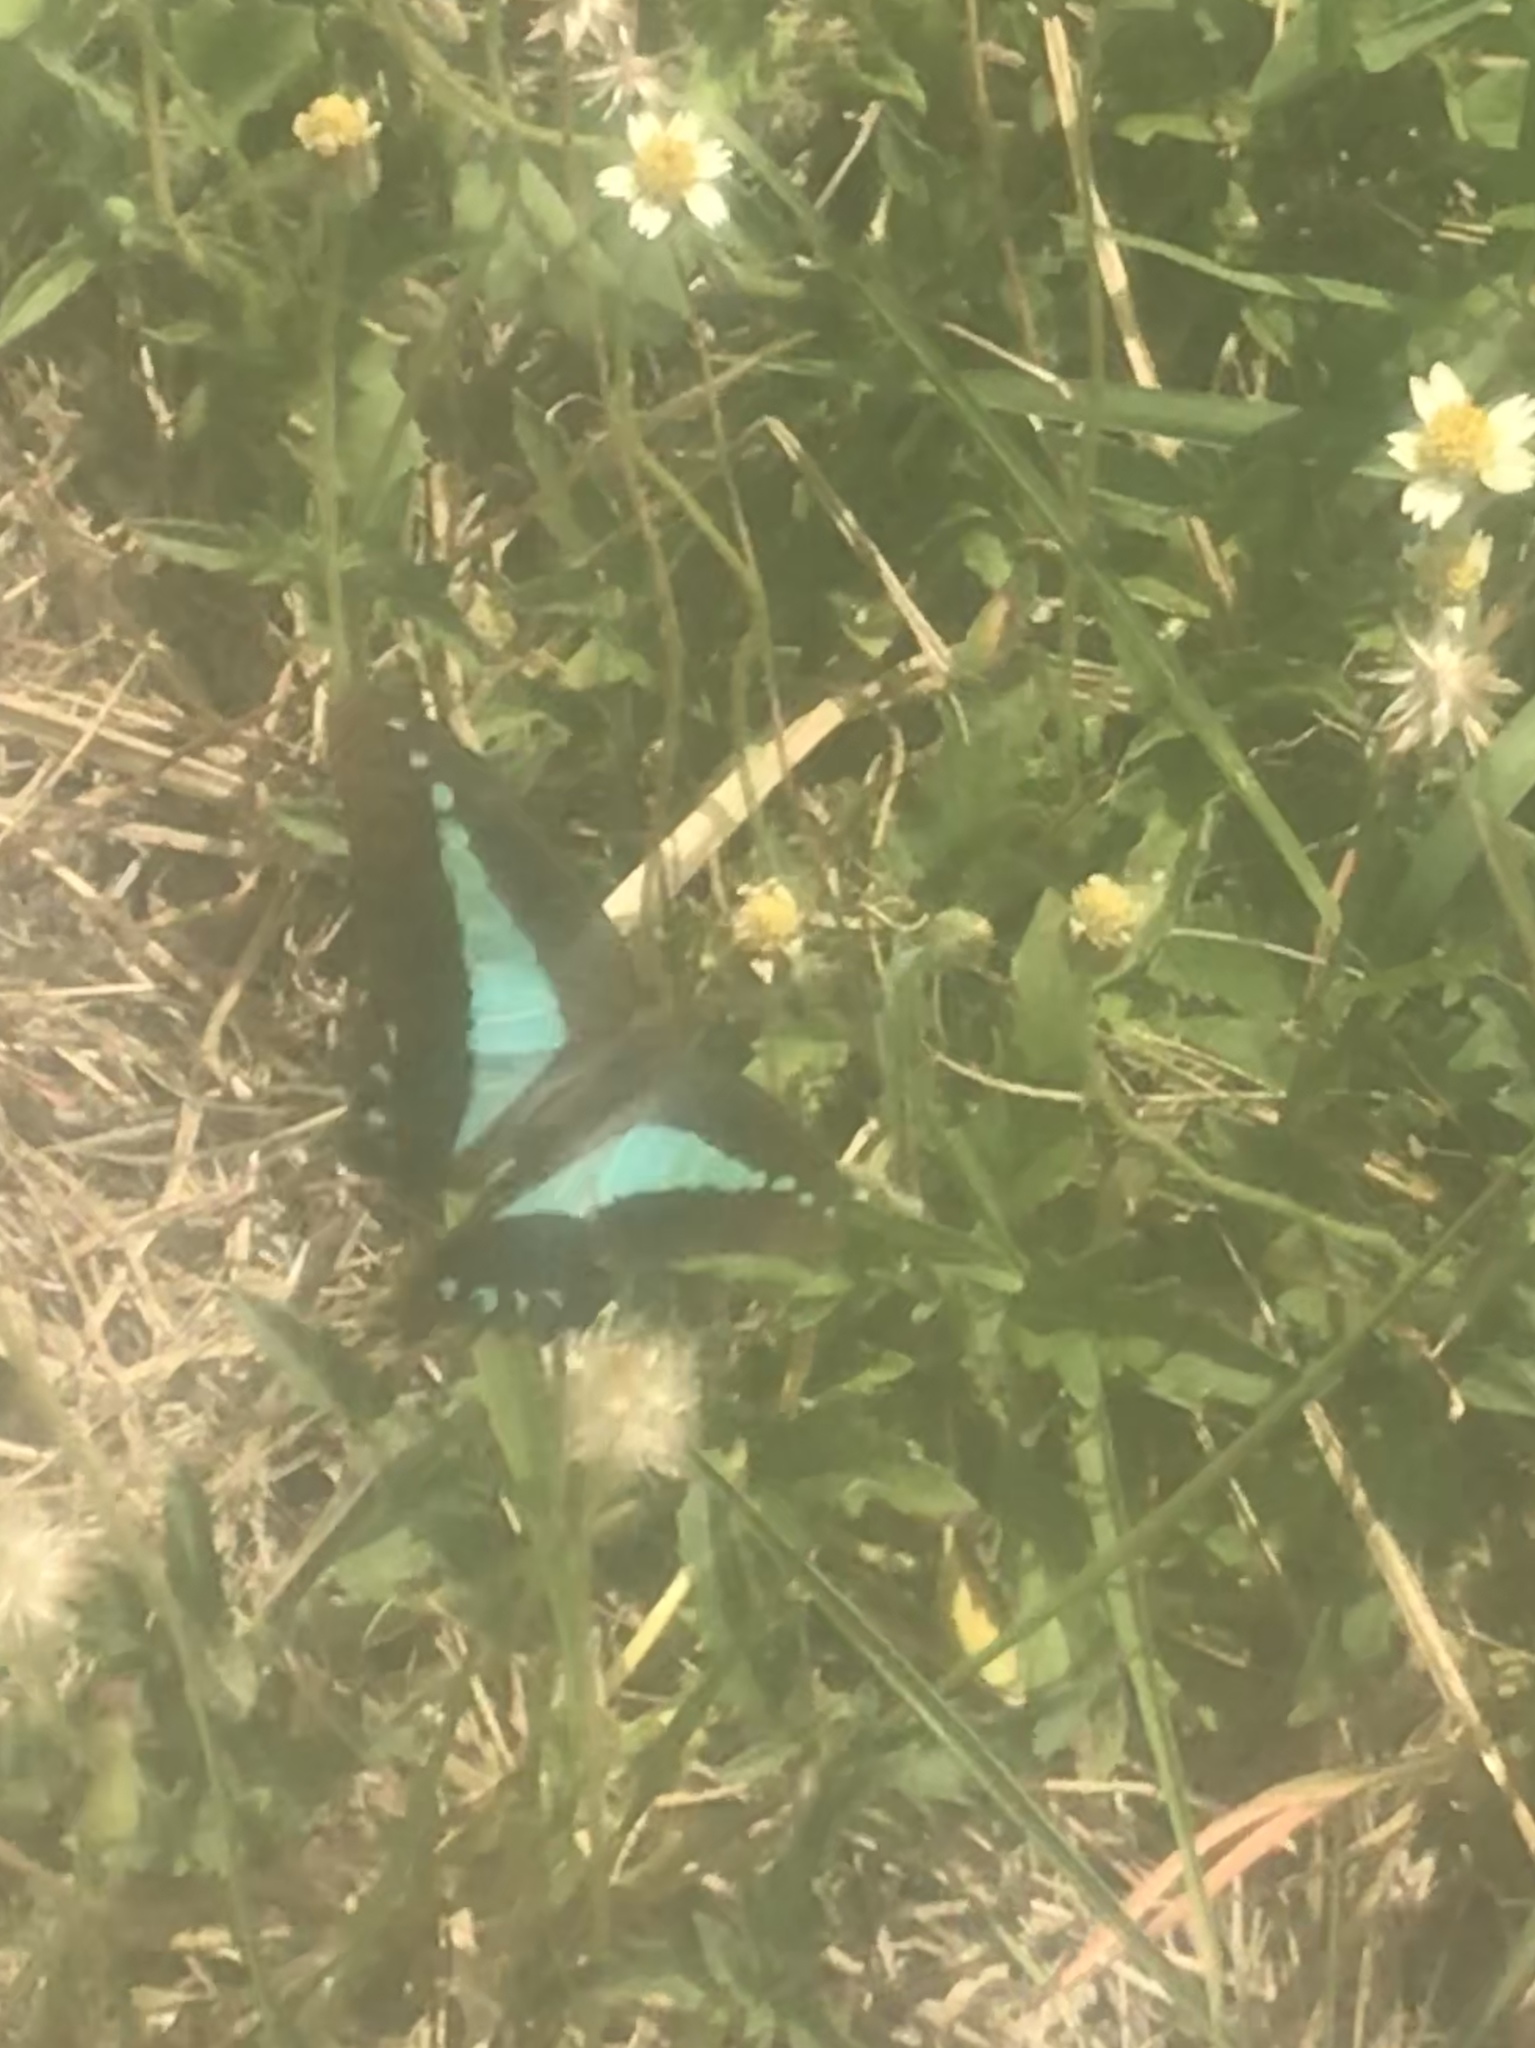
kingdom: Animalia
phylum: Arthropoda
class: Insecta
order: Lepidoptera
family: Papilionidae
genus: Graphium
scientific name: Graphium
